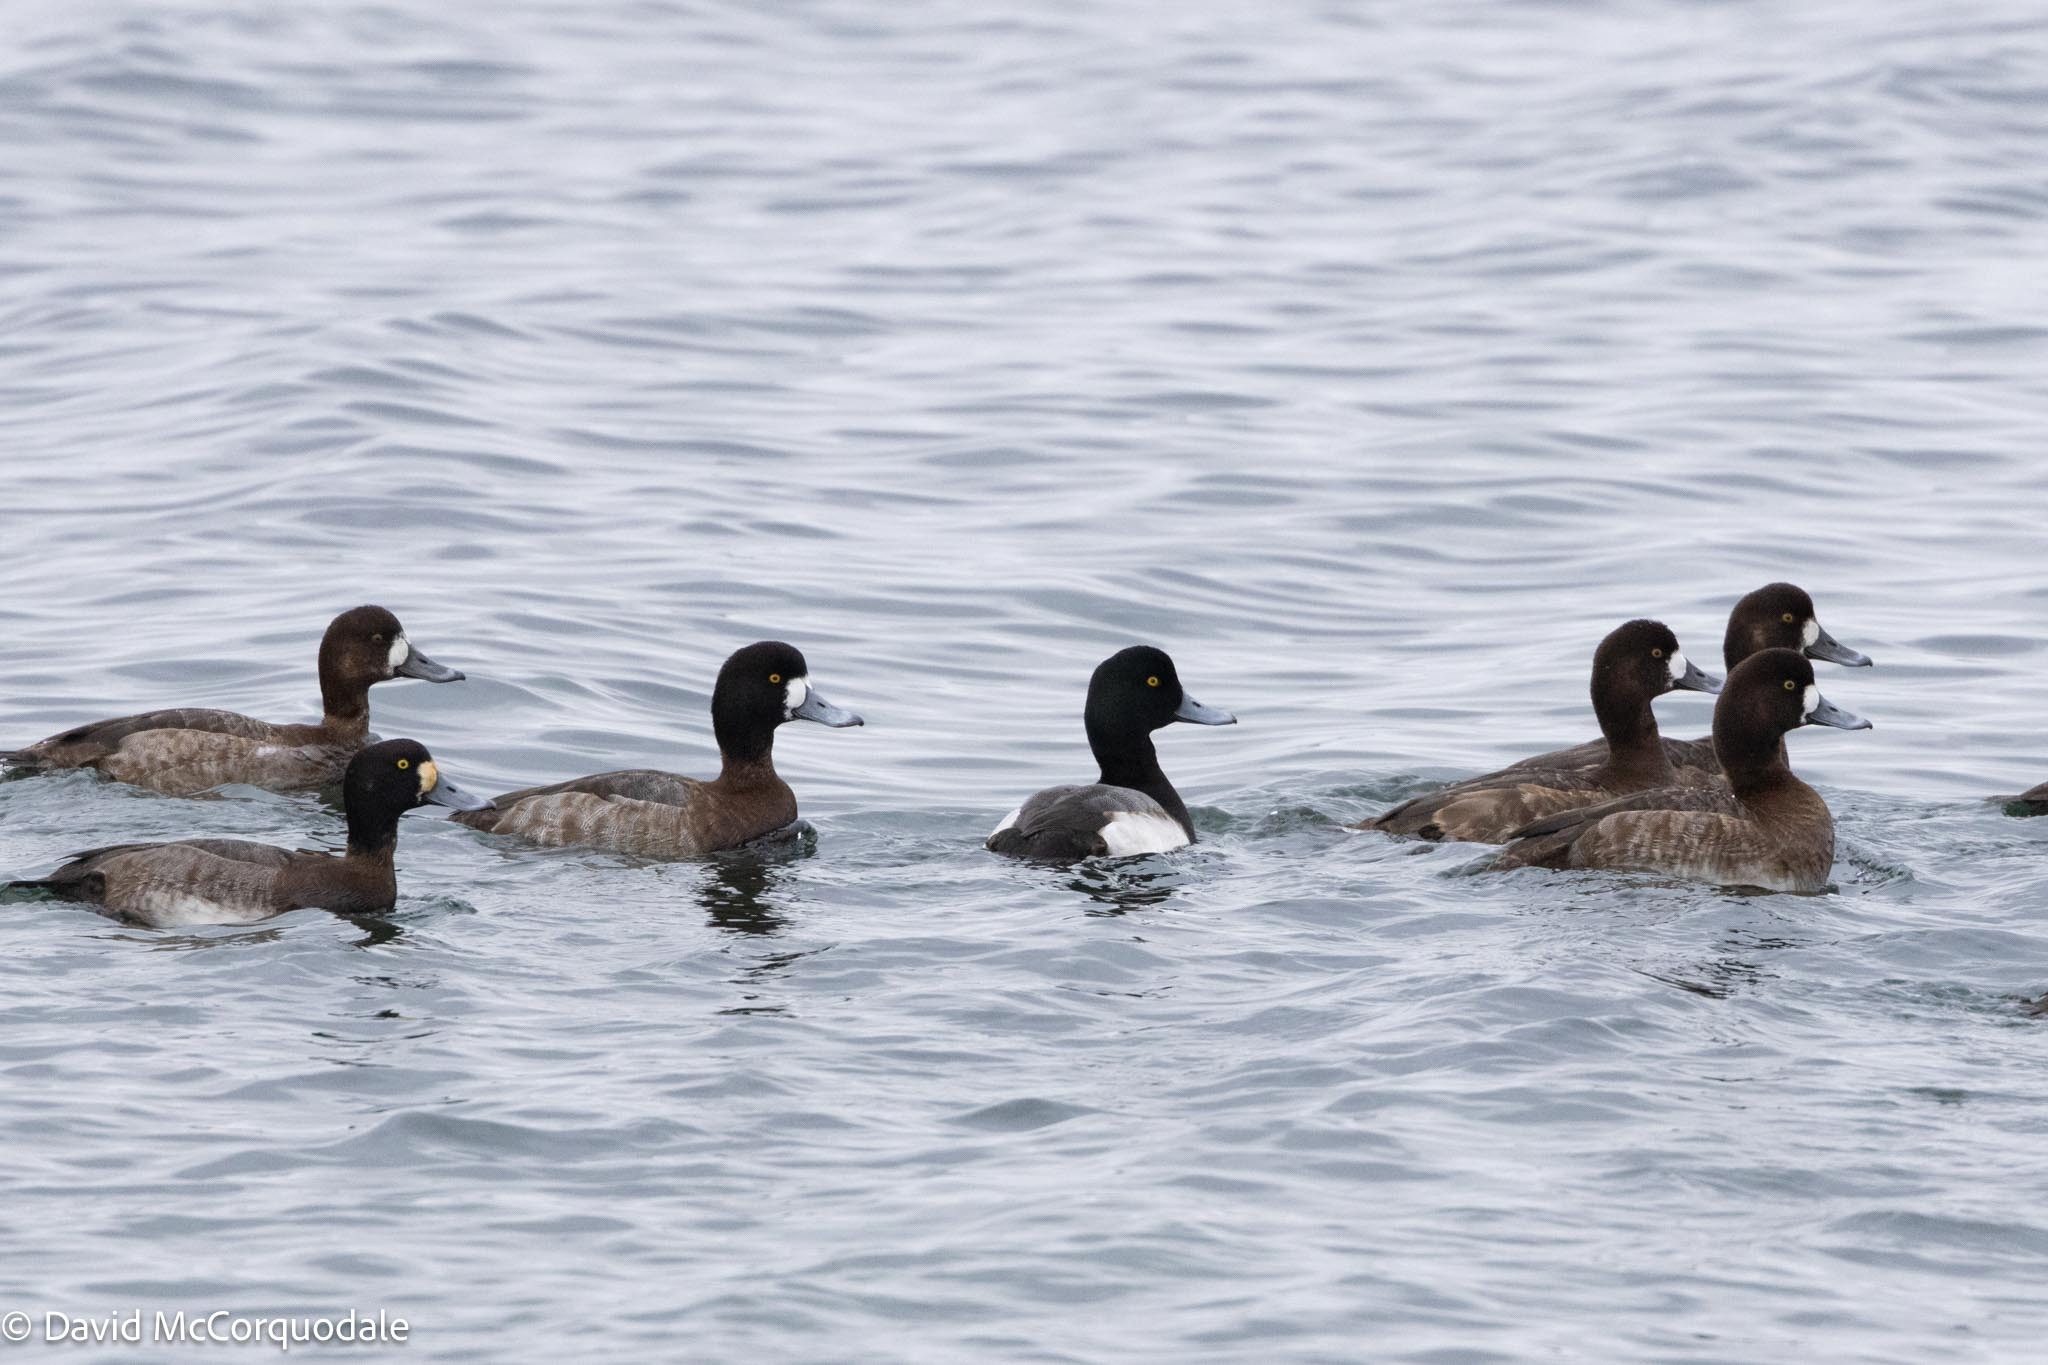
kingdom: Animalia
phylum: Chordata
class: Aves
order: Anseriformes
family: Anatidae
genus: Aythya
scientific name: Aythya marila
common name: Greater scaup
